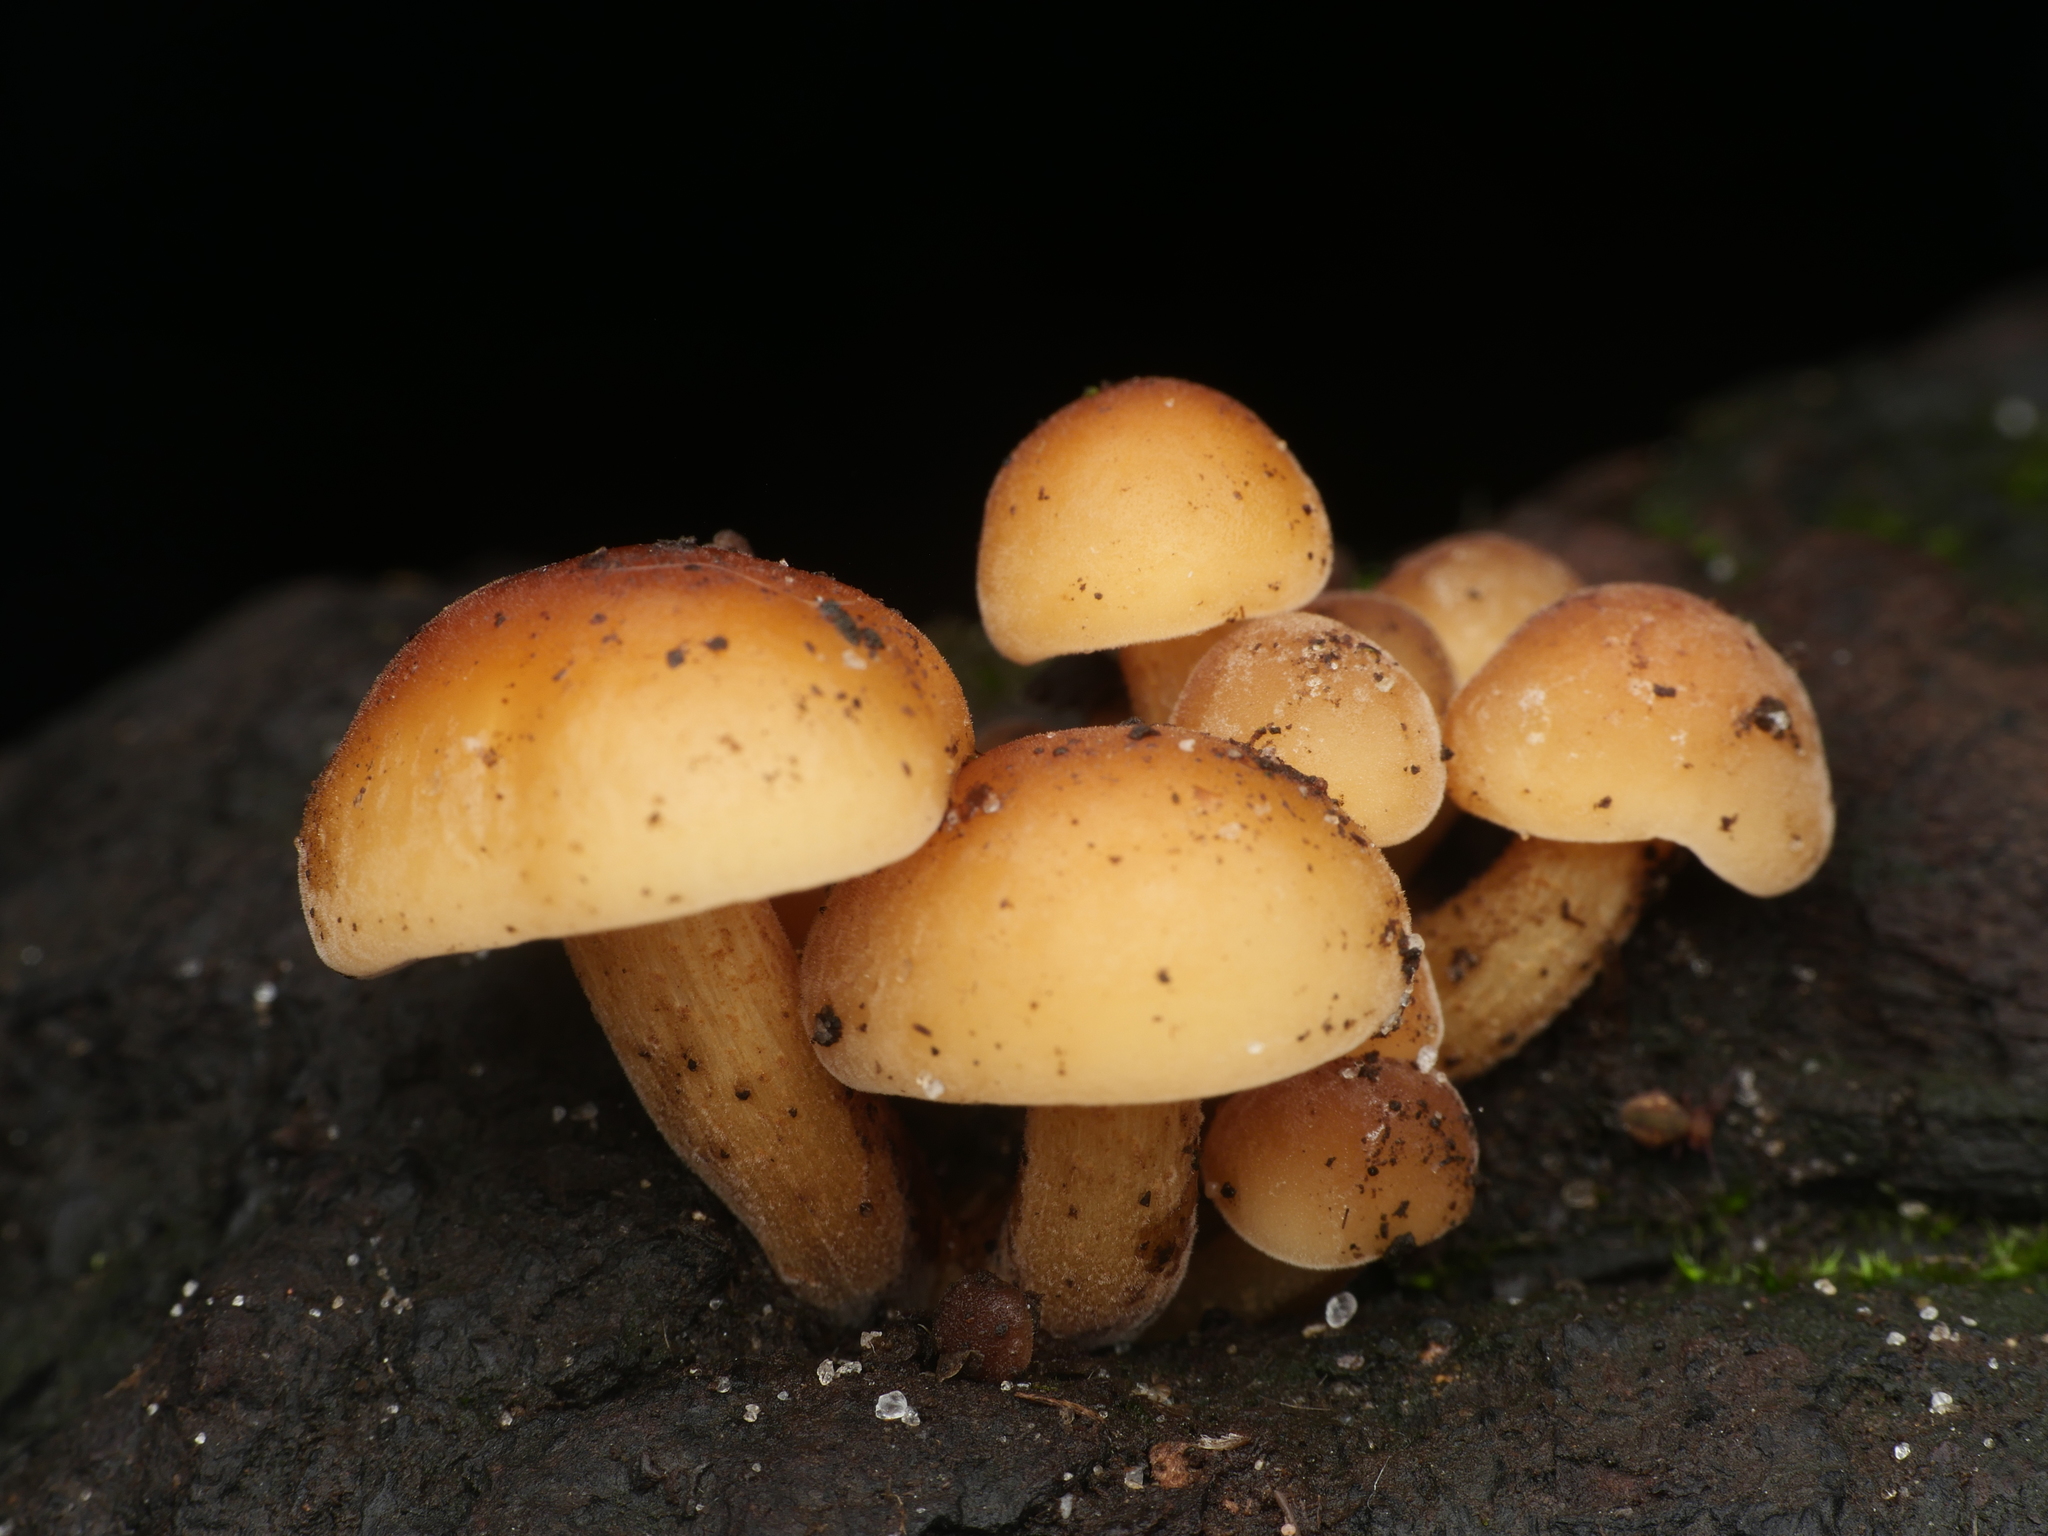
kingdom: Fungi
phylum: Basidiomycota
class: Agaricomycetes
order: Agaricales
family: Physalacriaceae
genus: Flammulina
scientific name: Flammulina
